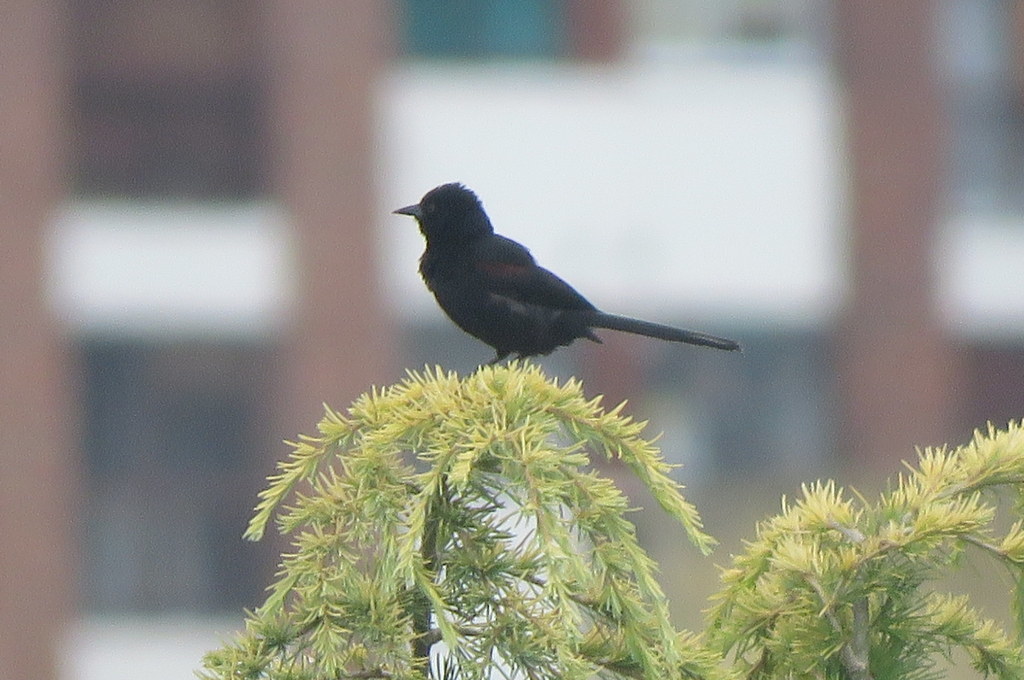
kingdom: Animalia
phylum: Chordata
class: Aves
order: Passeriformes
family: Icteridae
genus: Icterus
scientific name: Icterus cayanensis
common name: Epaulet oriole
